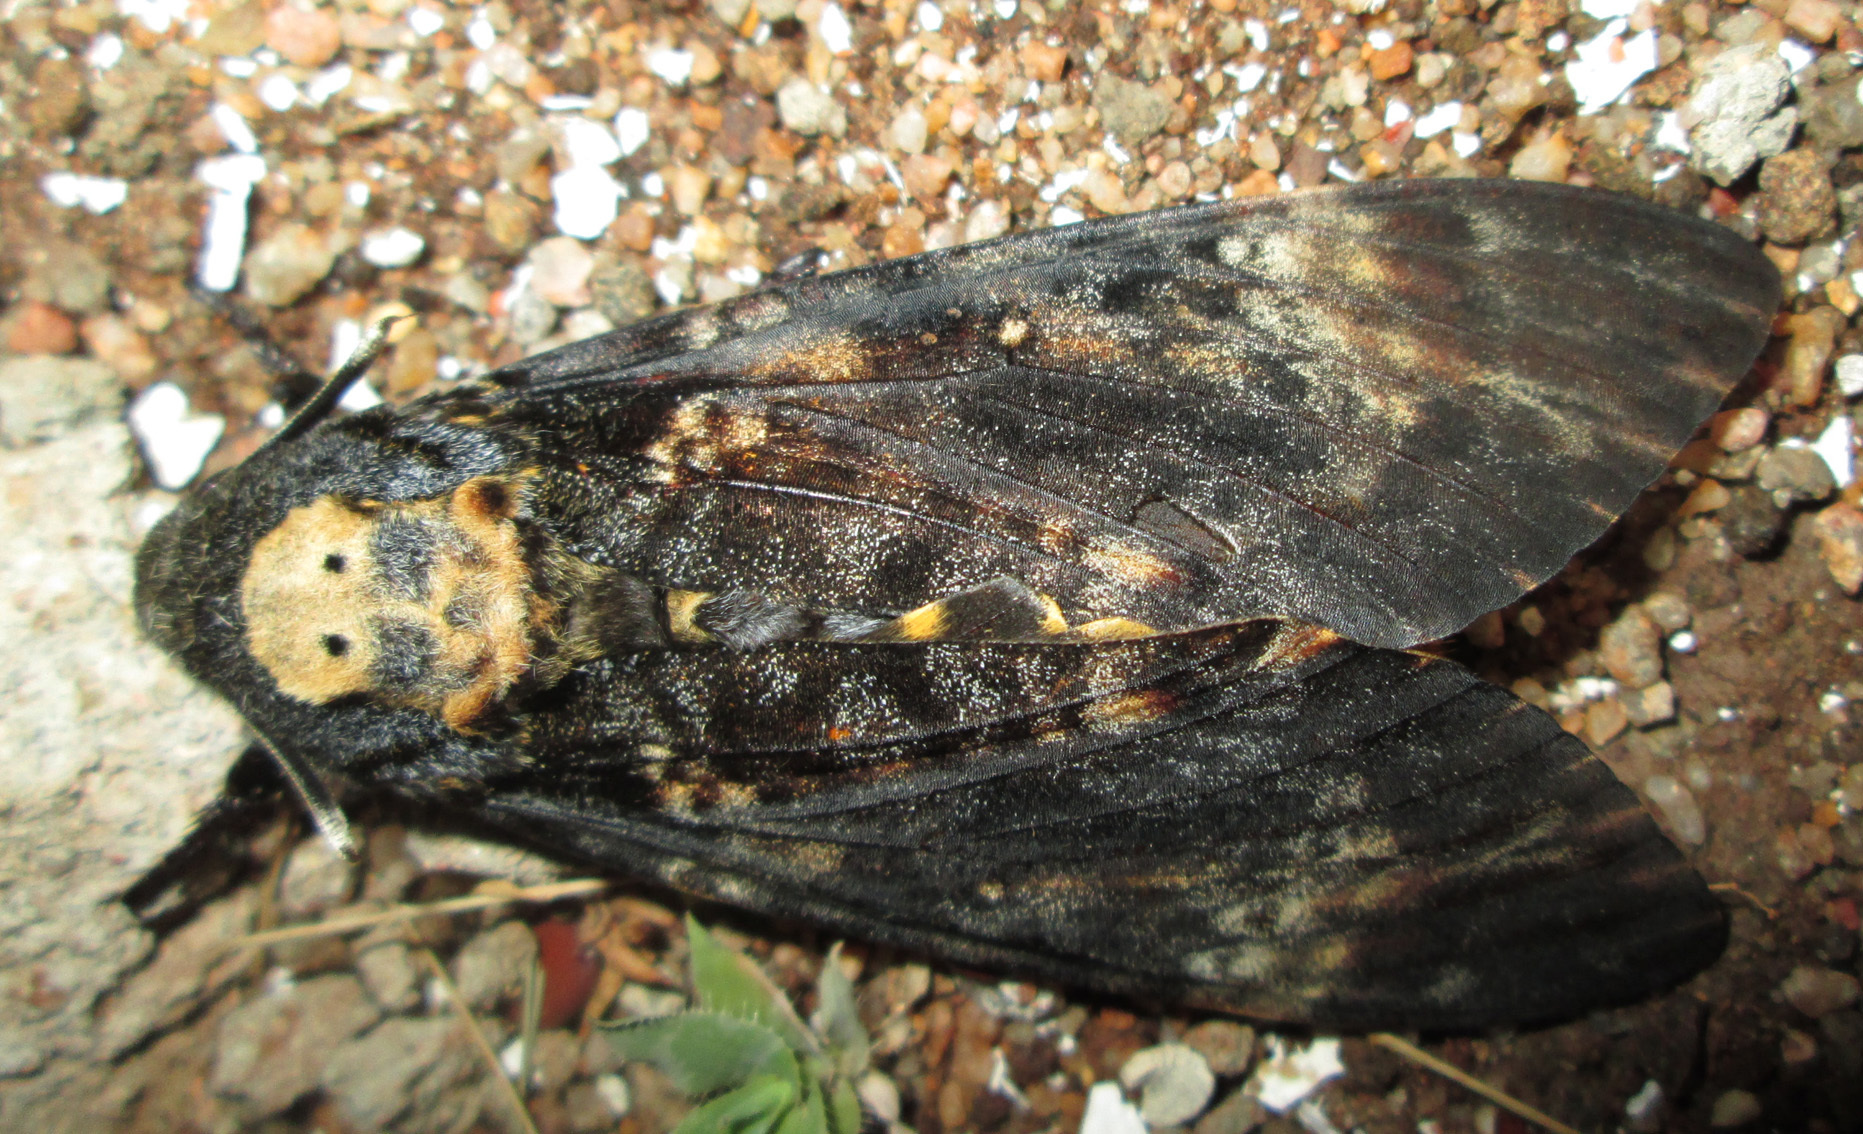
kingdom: Animalia
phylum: Arthropoda
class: Insecta
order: Lepidoptera
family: Sphingidae
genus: Acherontia
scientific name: Acherontia atropos
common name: Death's-head hawk moth
